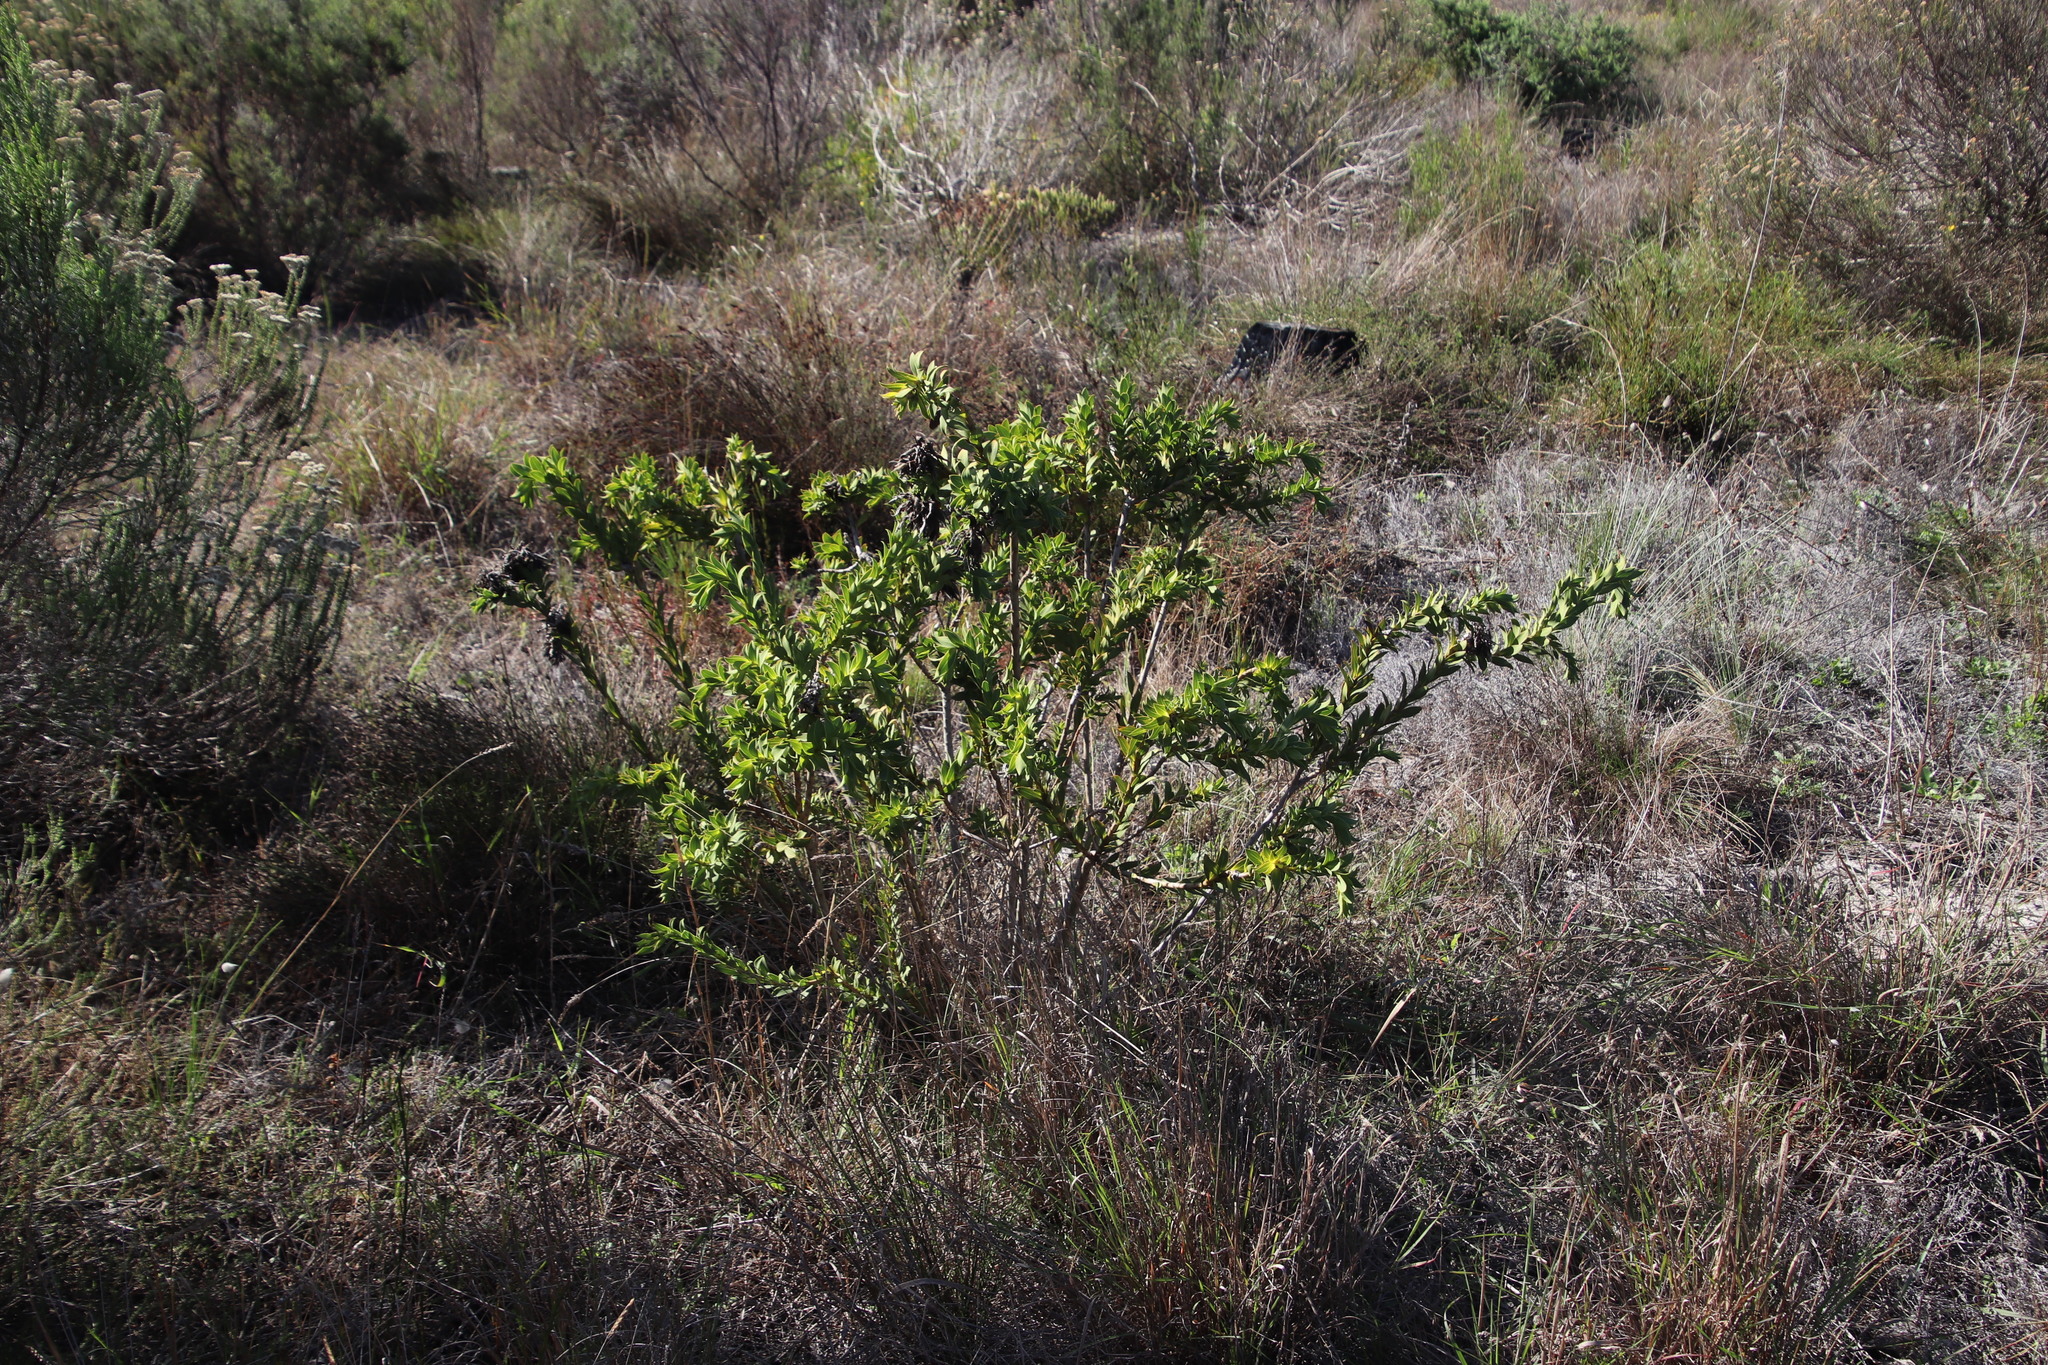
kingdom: Plantae
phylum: Tracheophyta
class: Magnoliopsida
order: Fabales
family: Fabaceae
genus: Liparia
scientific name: Liparia splendens
